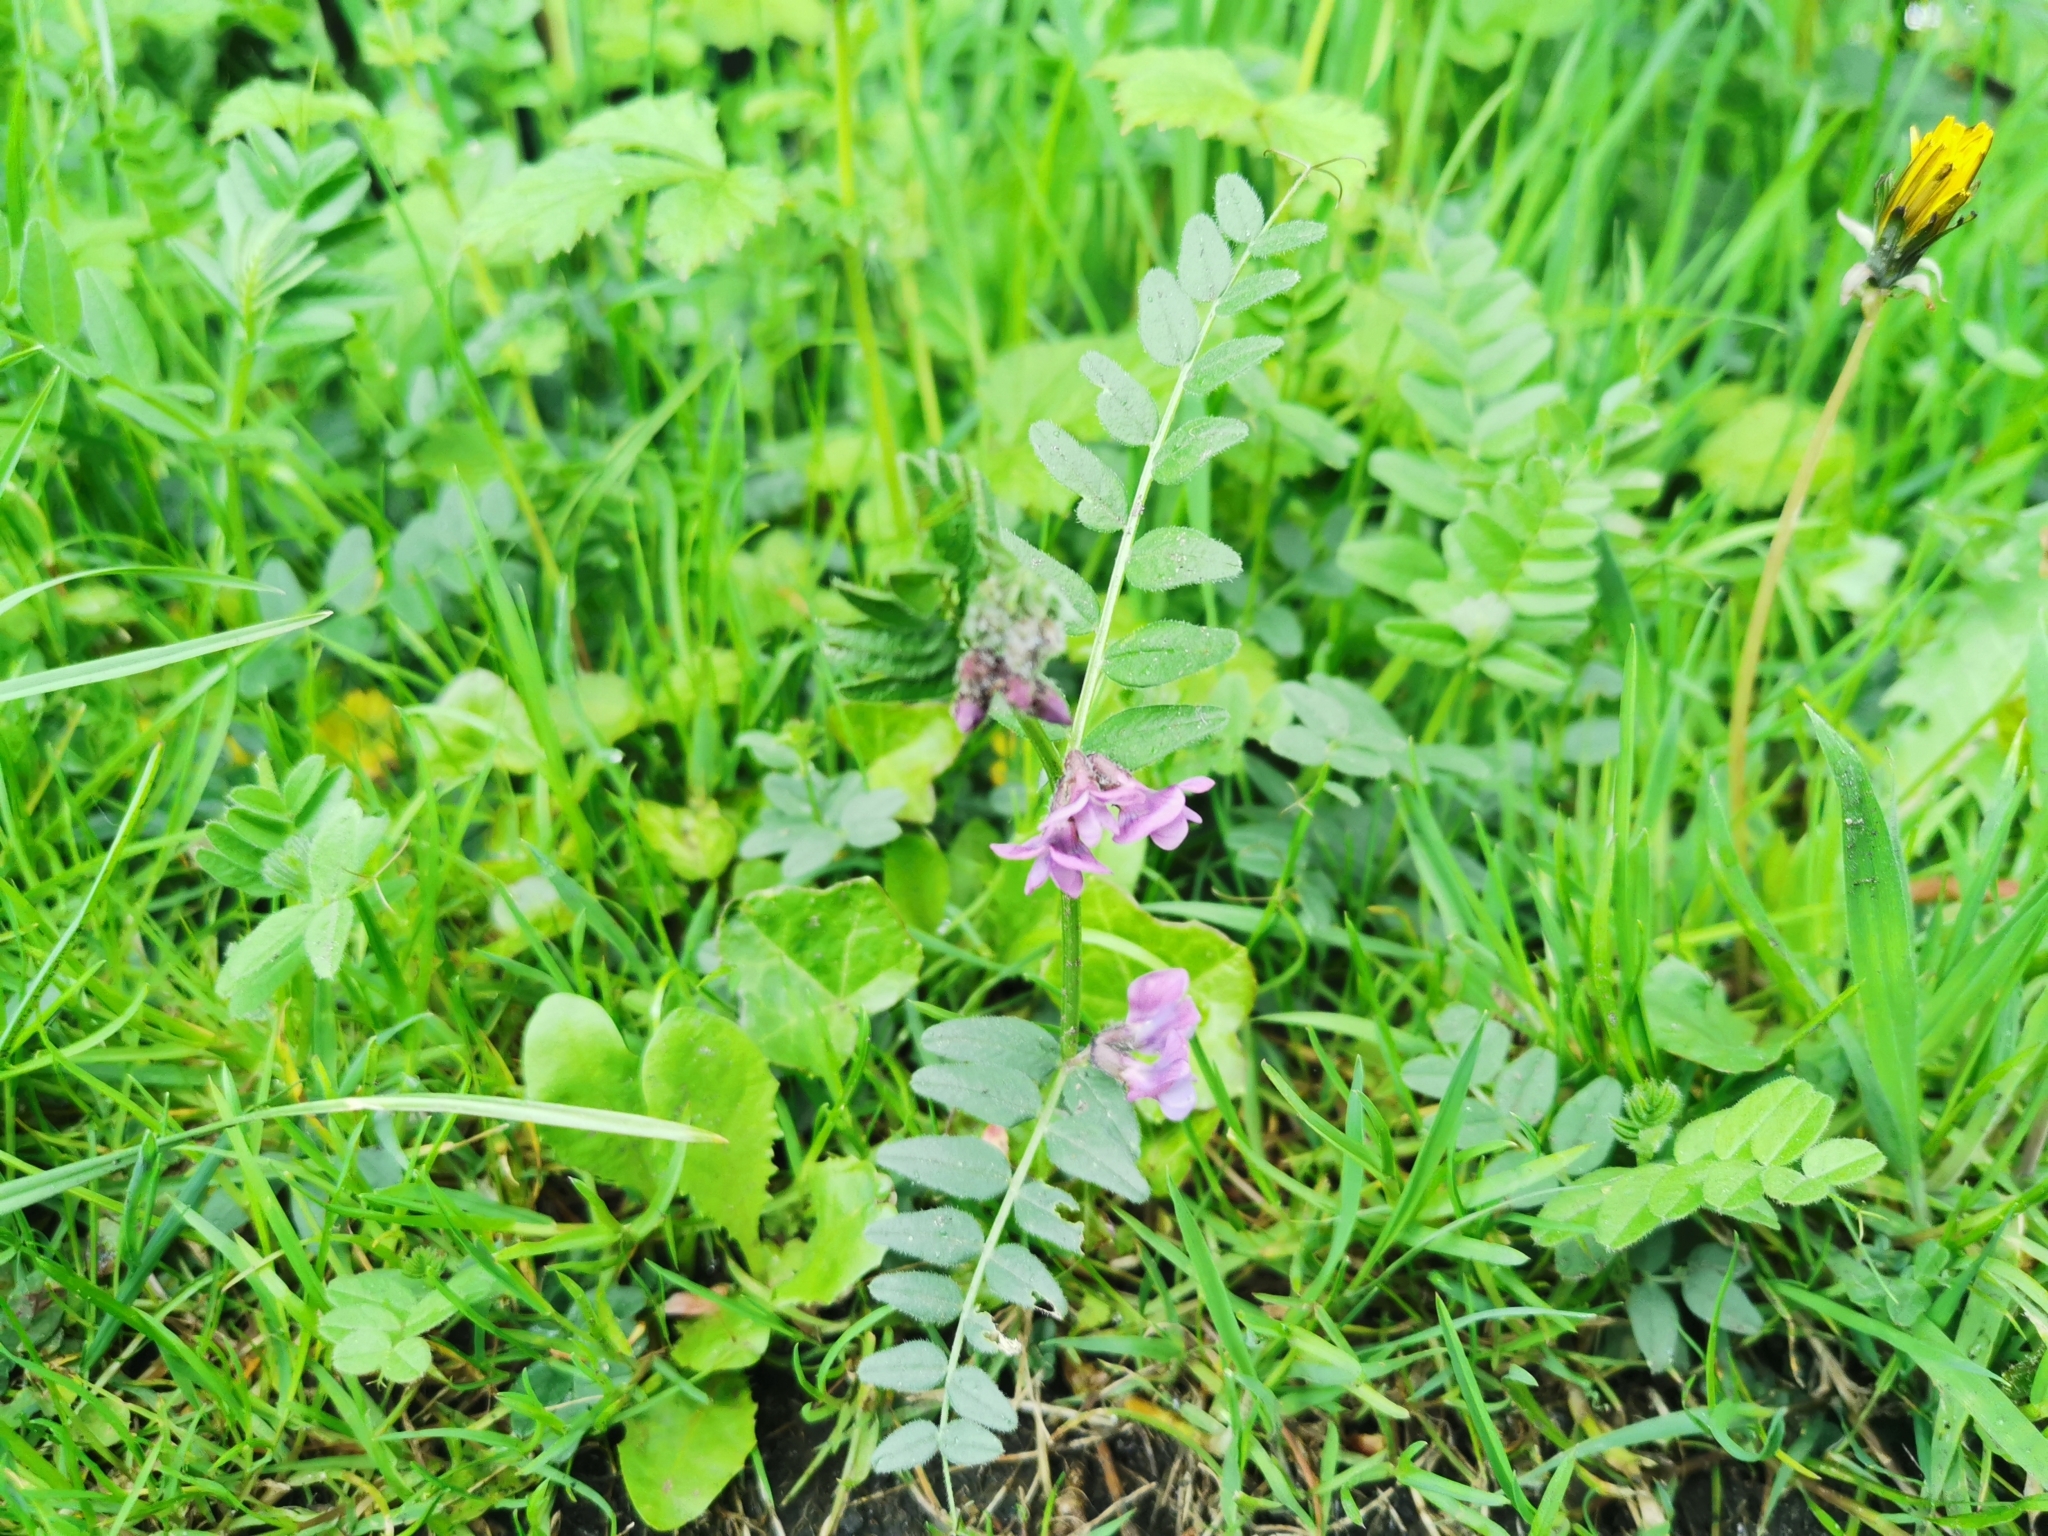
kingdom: Plantae
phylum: Tracheophyta
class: Magnoliopsida
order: Fabales
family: Fabaceae
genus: Vicia
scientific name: Vicia sepium
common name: Bush vetch
